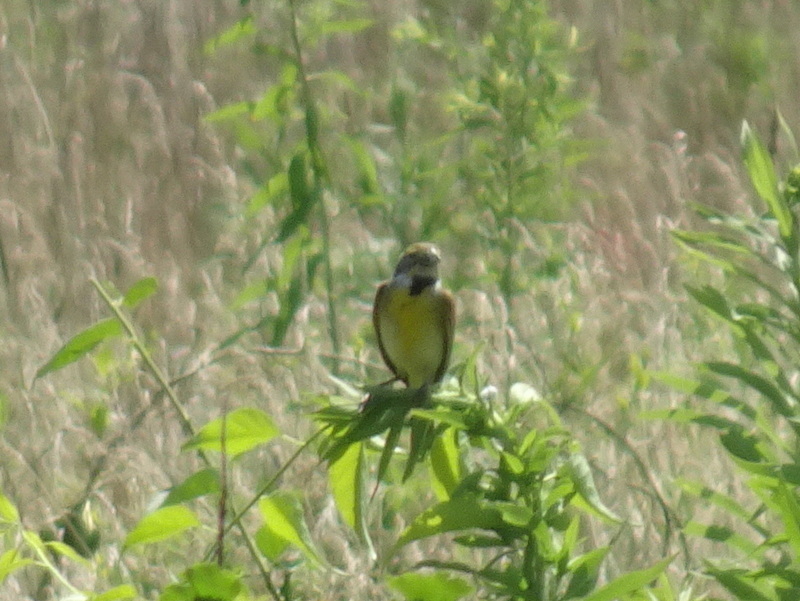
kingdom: Animalia
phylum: Chordata
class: Aves
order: Passeriformes
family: Cardinalidae
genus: Spiza
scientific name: Spiza americana
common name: Dickcissel
